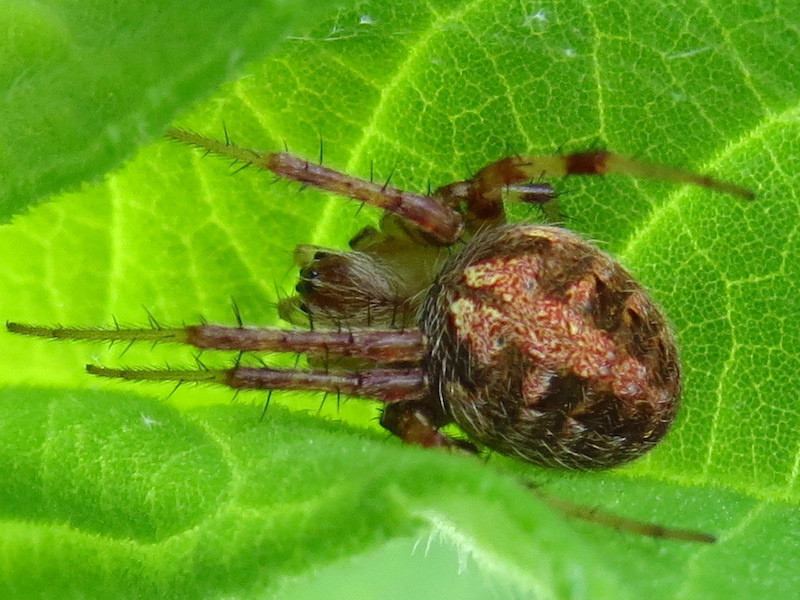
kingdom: Animalia
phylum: Arthropoda
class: Arachnida
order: Araneae
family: Araneidae
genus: Neoscona
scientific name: Neoscona arabesca
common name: Orb weavers
